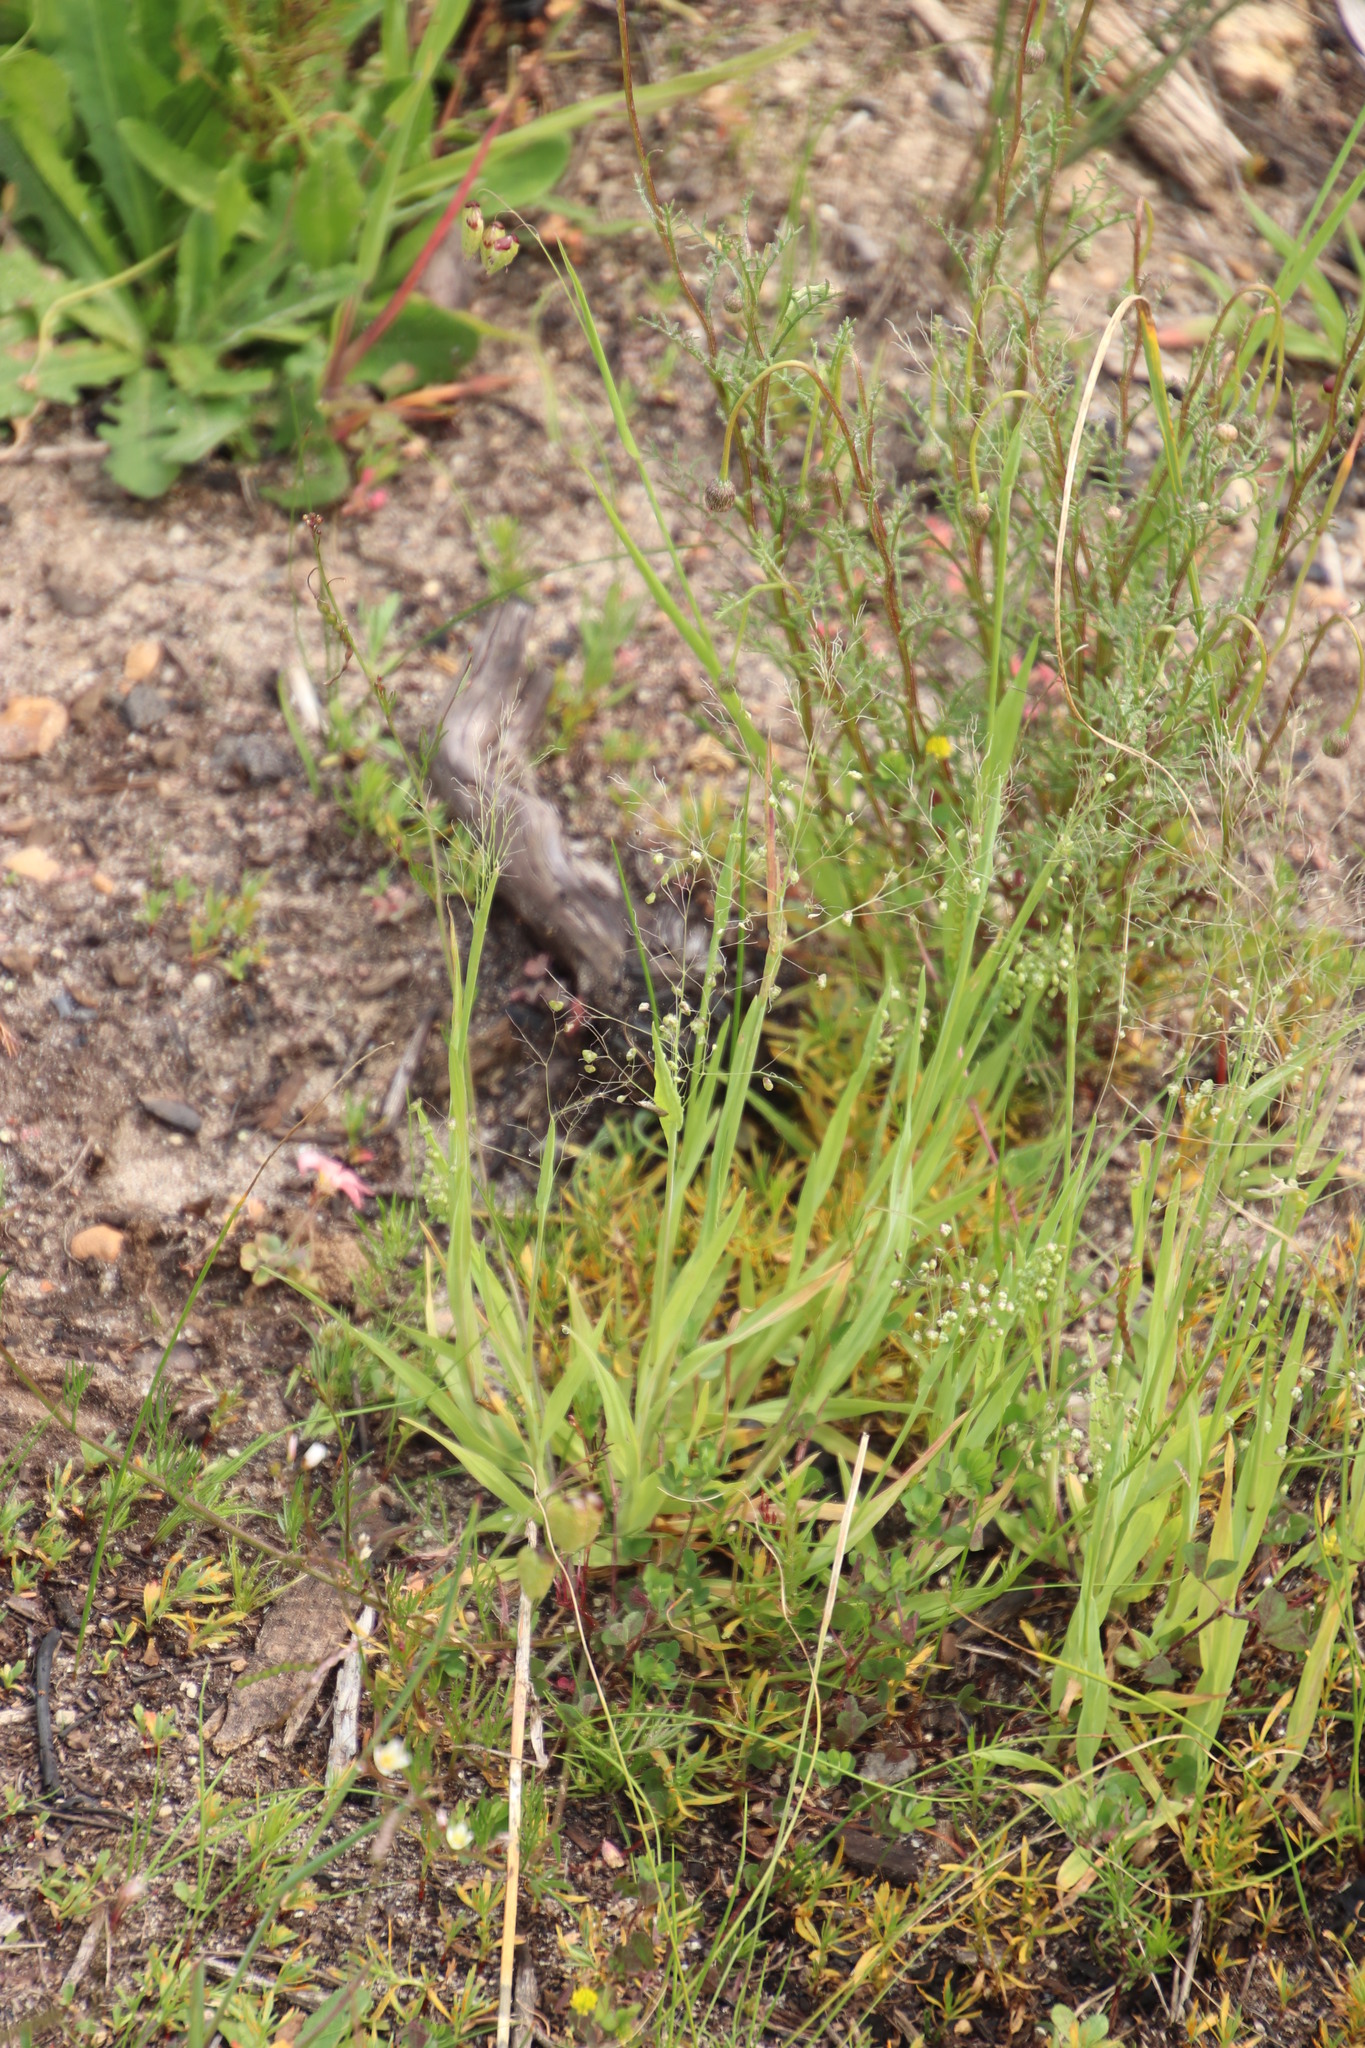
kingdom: Plantae
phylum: Tracheophyta
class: Liliopsida
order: Poales
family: Poaceae
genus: Briza
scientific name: Briza minor
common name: Lesser quaking-grass
